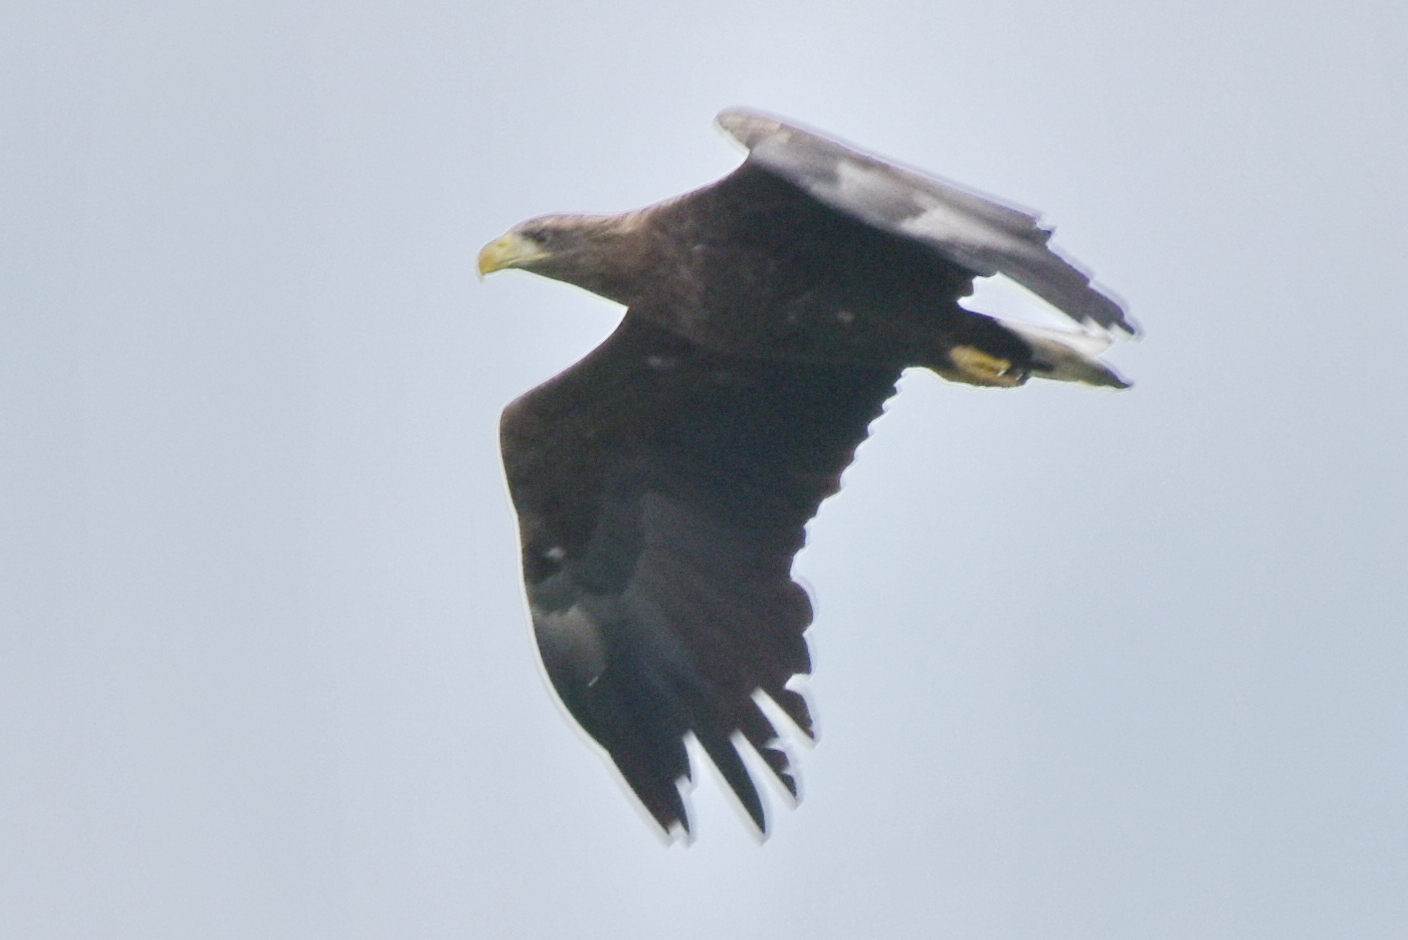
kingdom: Animalia
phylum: Chordata
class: Aves
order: Accipitriformes
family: Accipitridae
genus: Haliaeetus
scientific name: Haliaeetus albicilla
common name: White-tailed eagle
